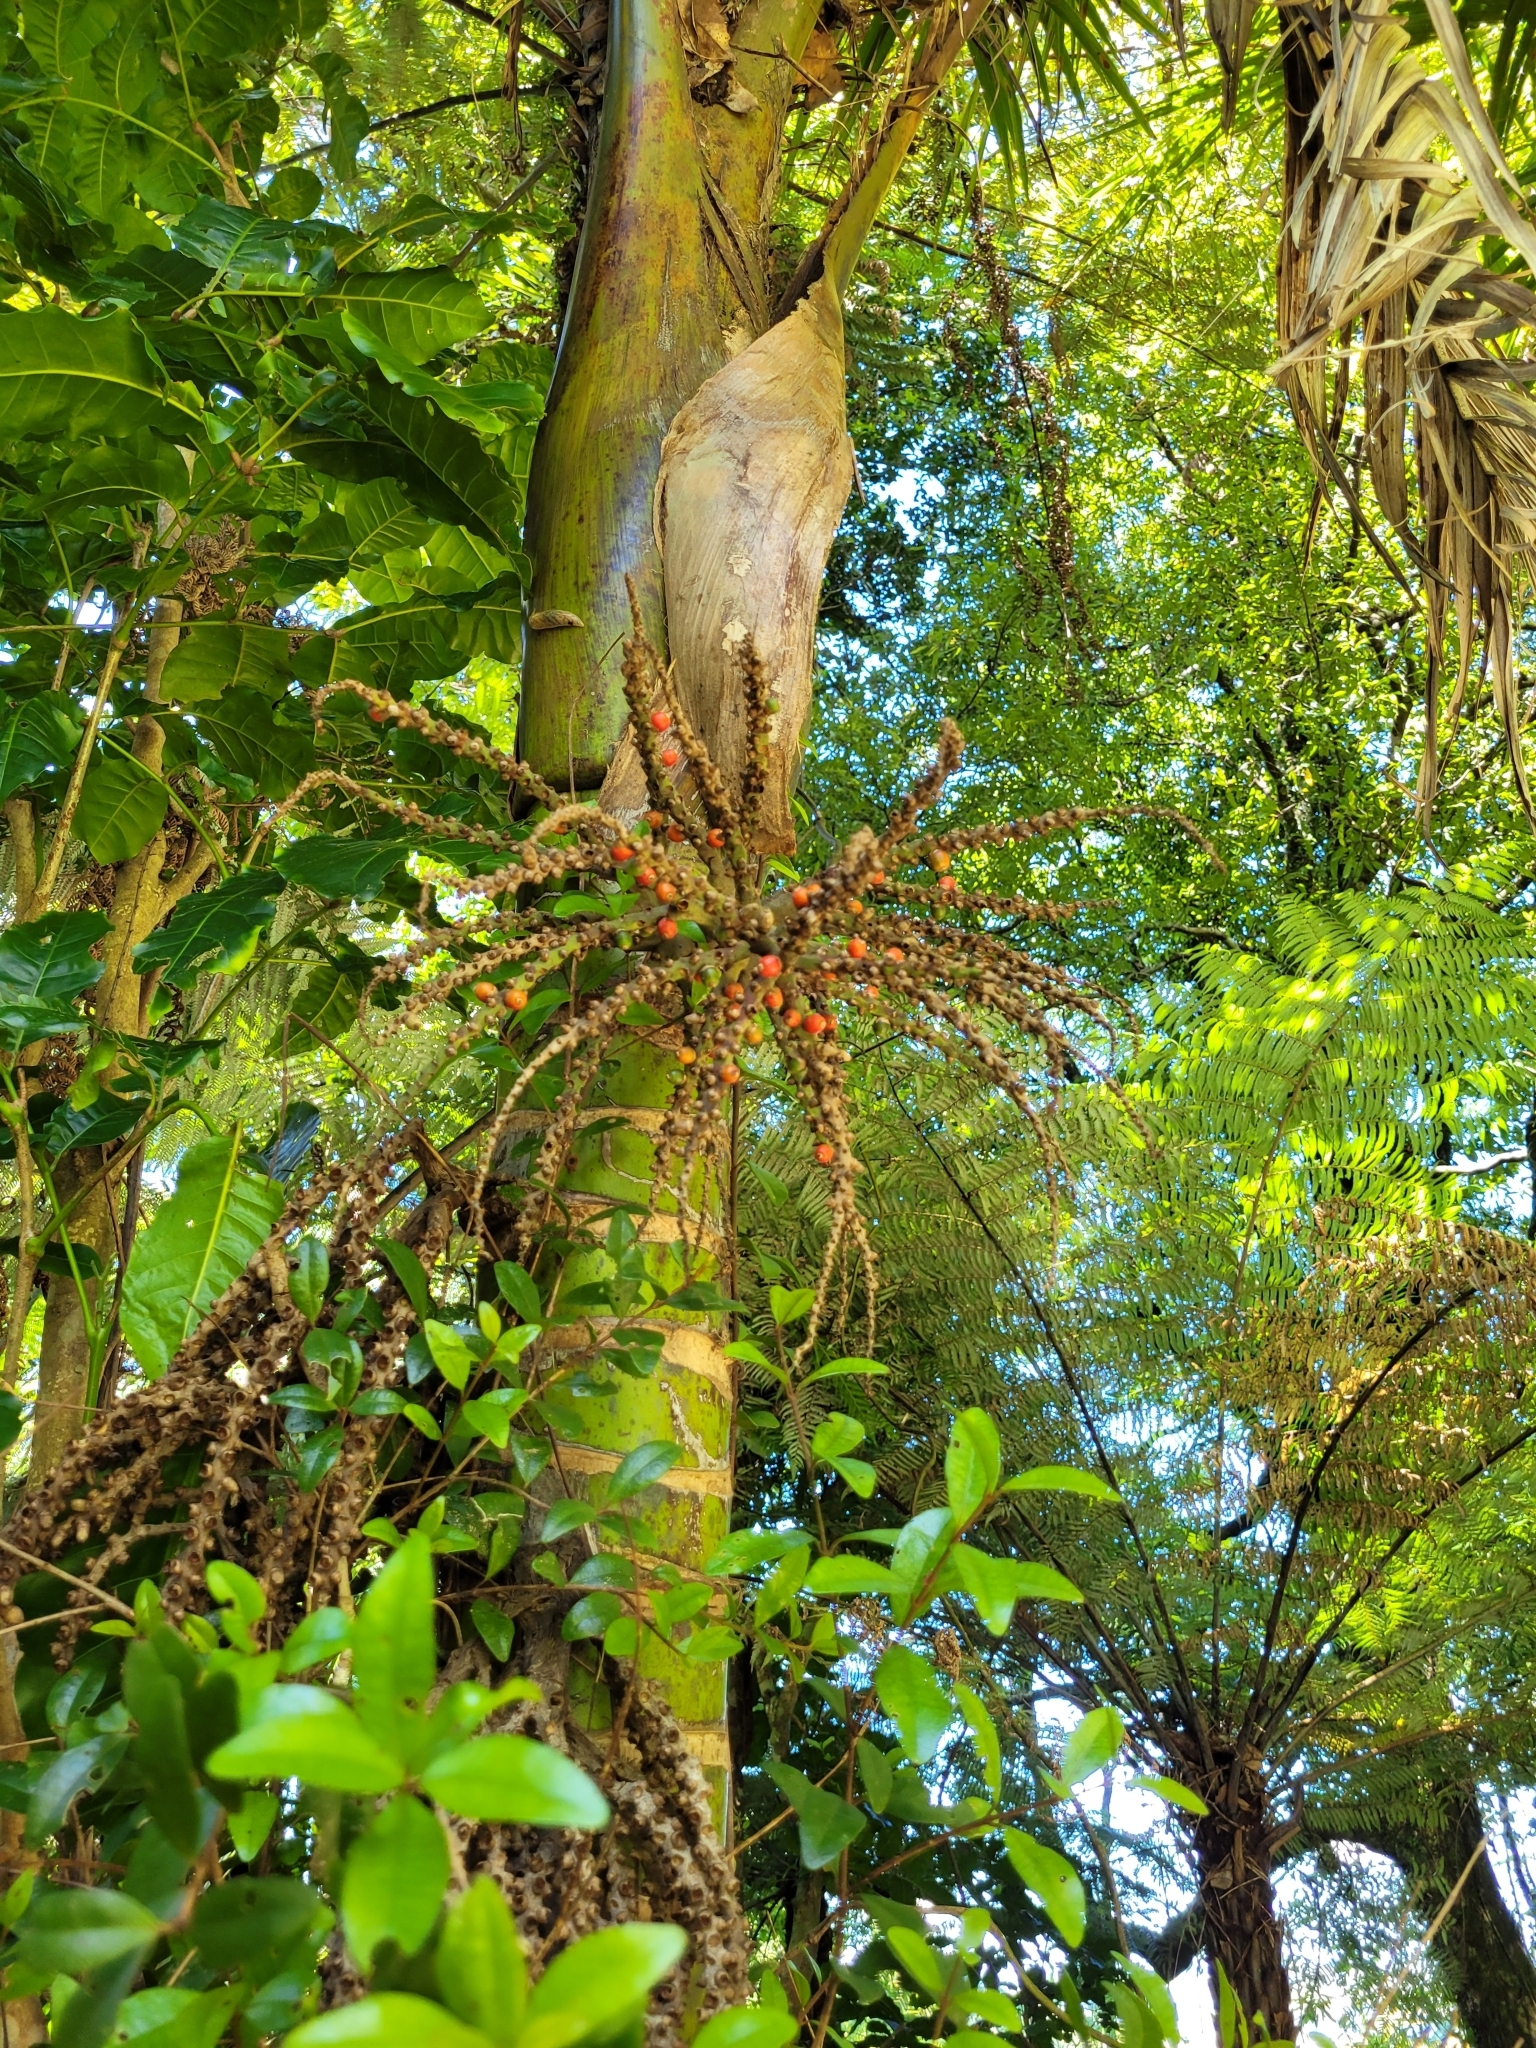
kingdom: Plantae
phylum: Tracheophyta
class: Liliopsida
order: Arecales
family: Arecaceae
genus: Rhopalostylis
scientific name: Rhopalostylis sapida
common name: Feather-duster palm
